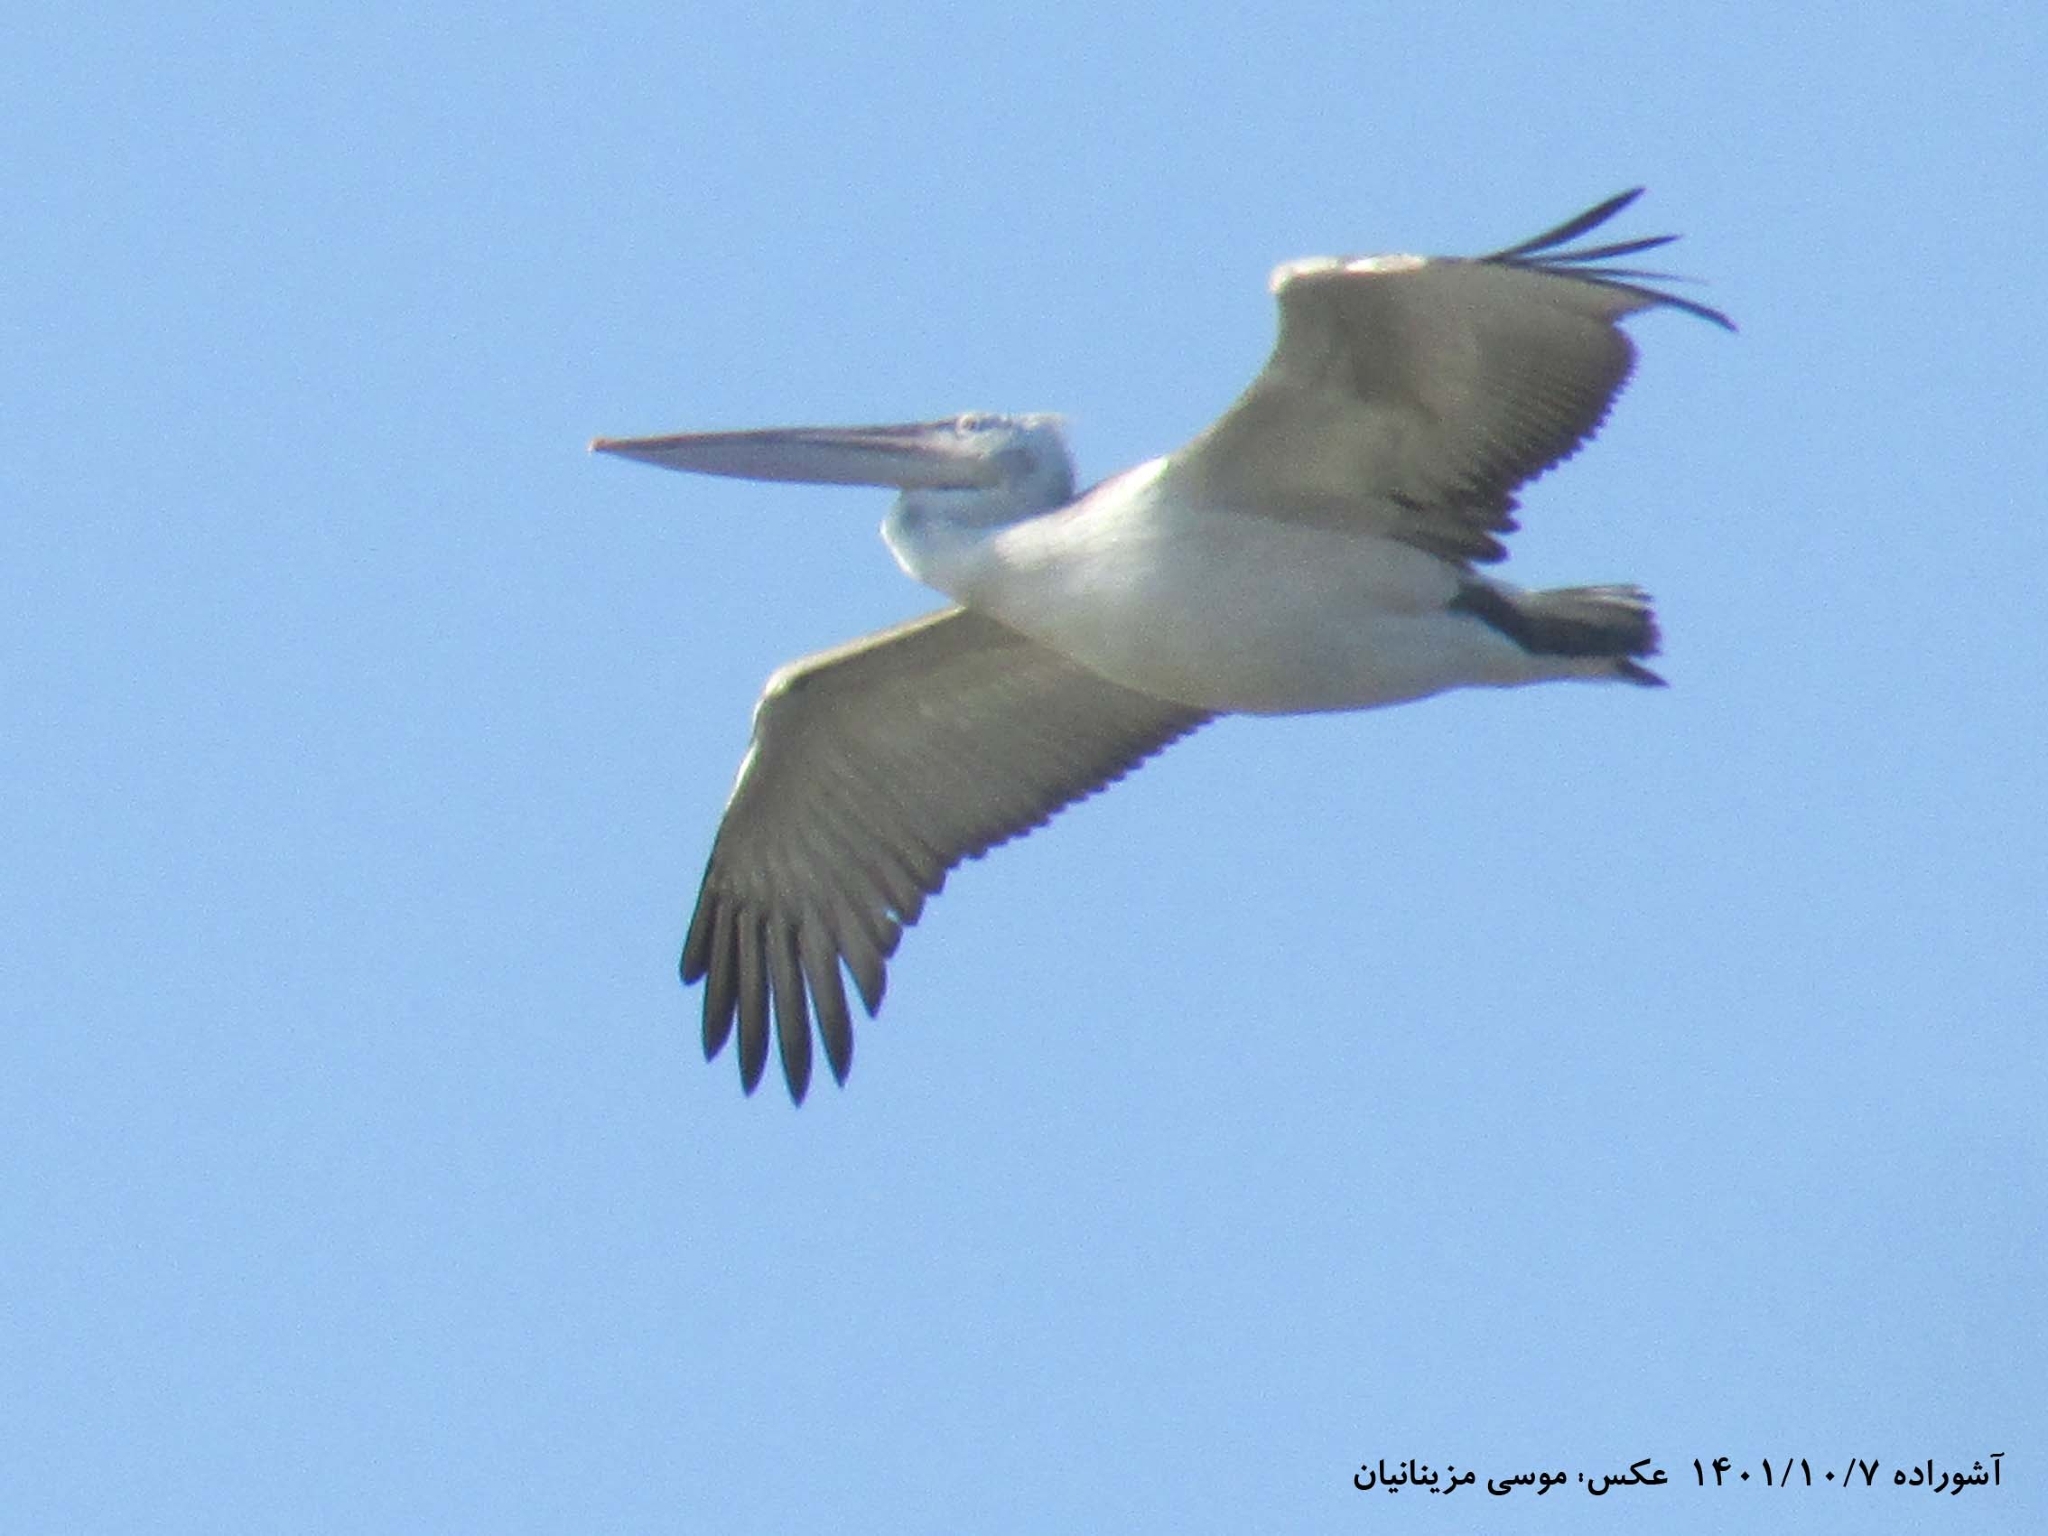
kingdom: Animalia
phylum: Chordata
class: Aves
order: Pelecaniformes
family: Pelecanidae
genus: Pelecanus
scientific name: Pelecanus crispus
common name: Dalmatian pelican
